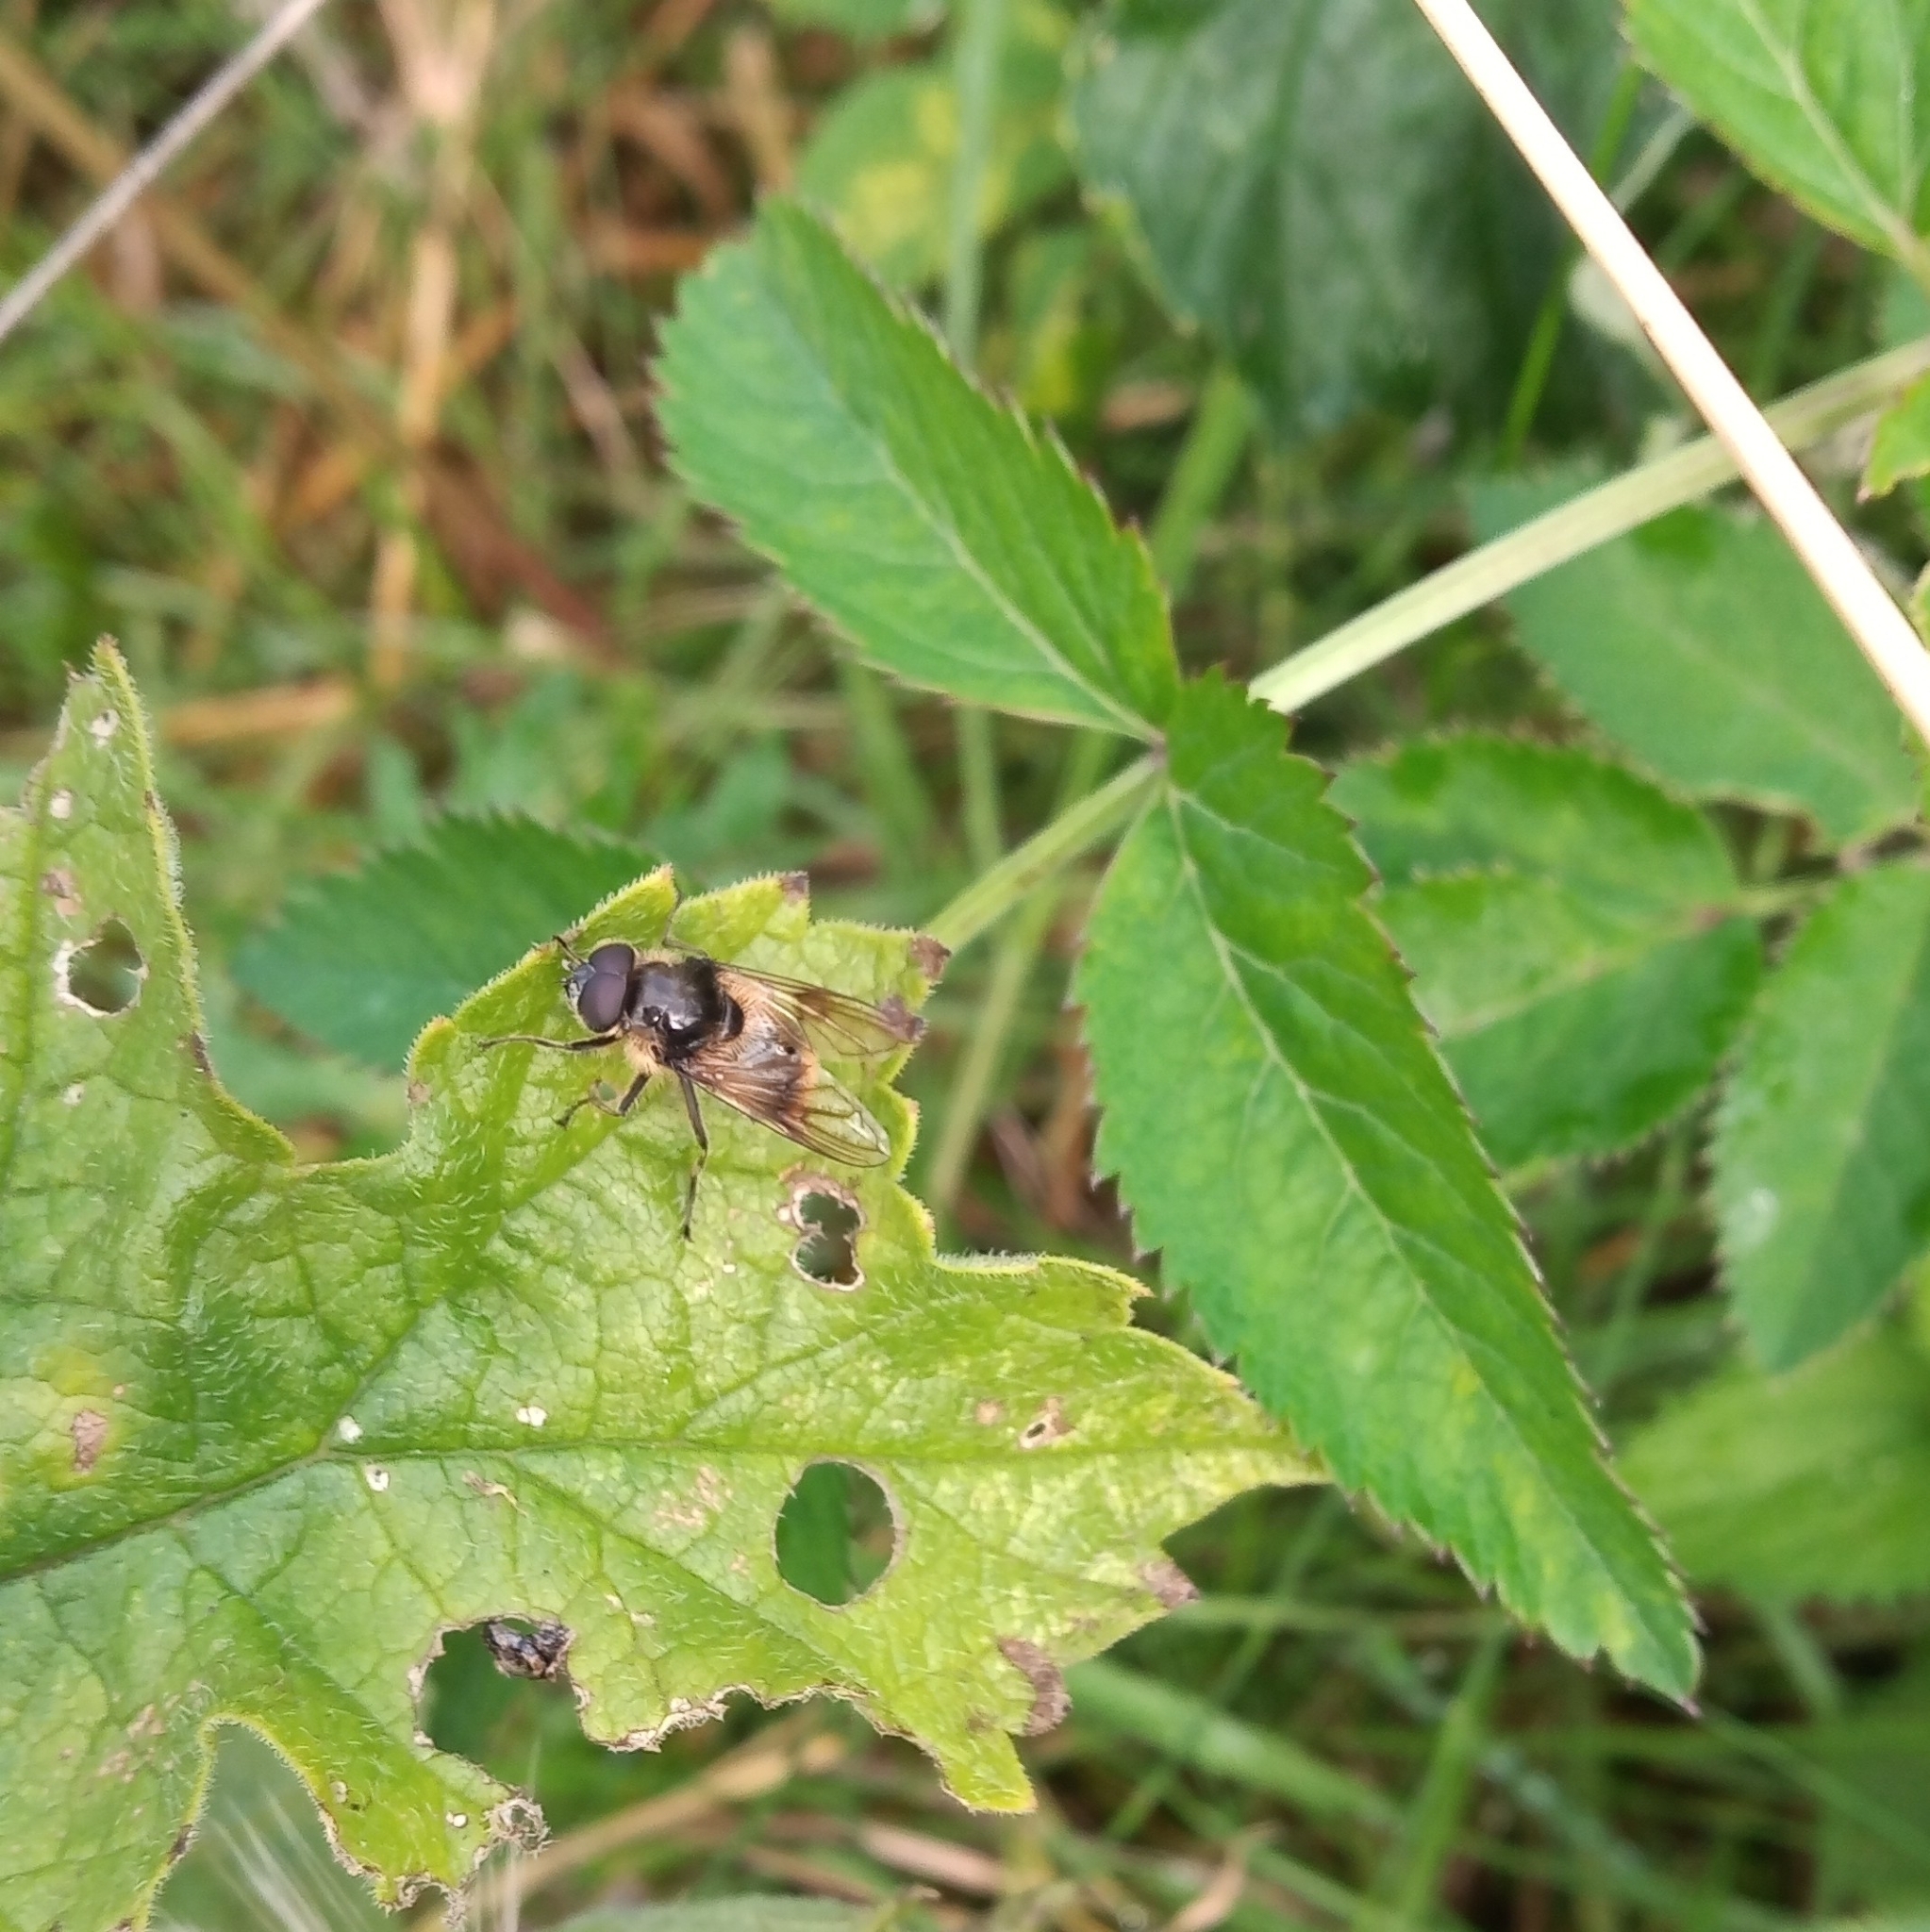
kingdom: Animalia
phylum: Arthropoda
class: Insecta
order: Diptera
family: Syrphidae
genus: Cheilosia
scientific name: Cheilosia illustrata
